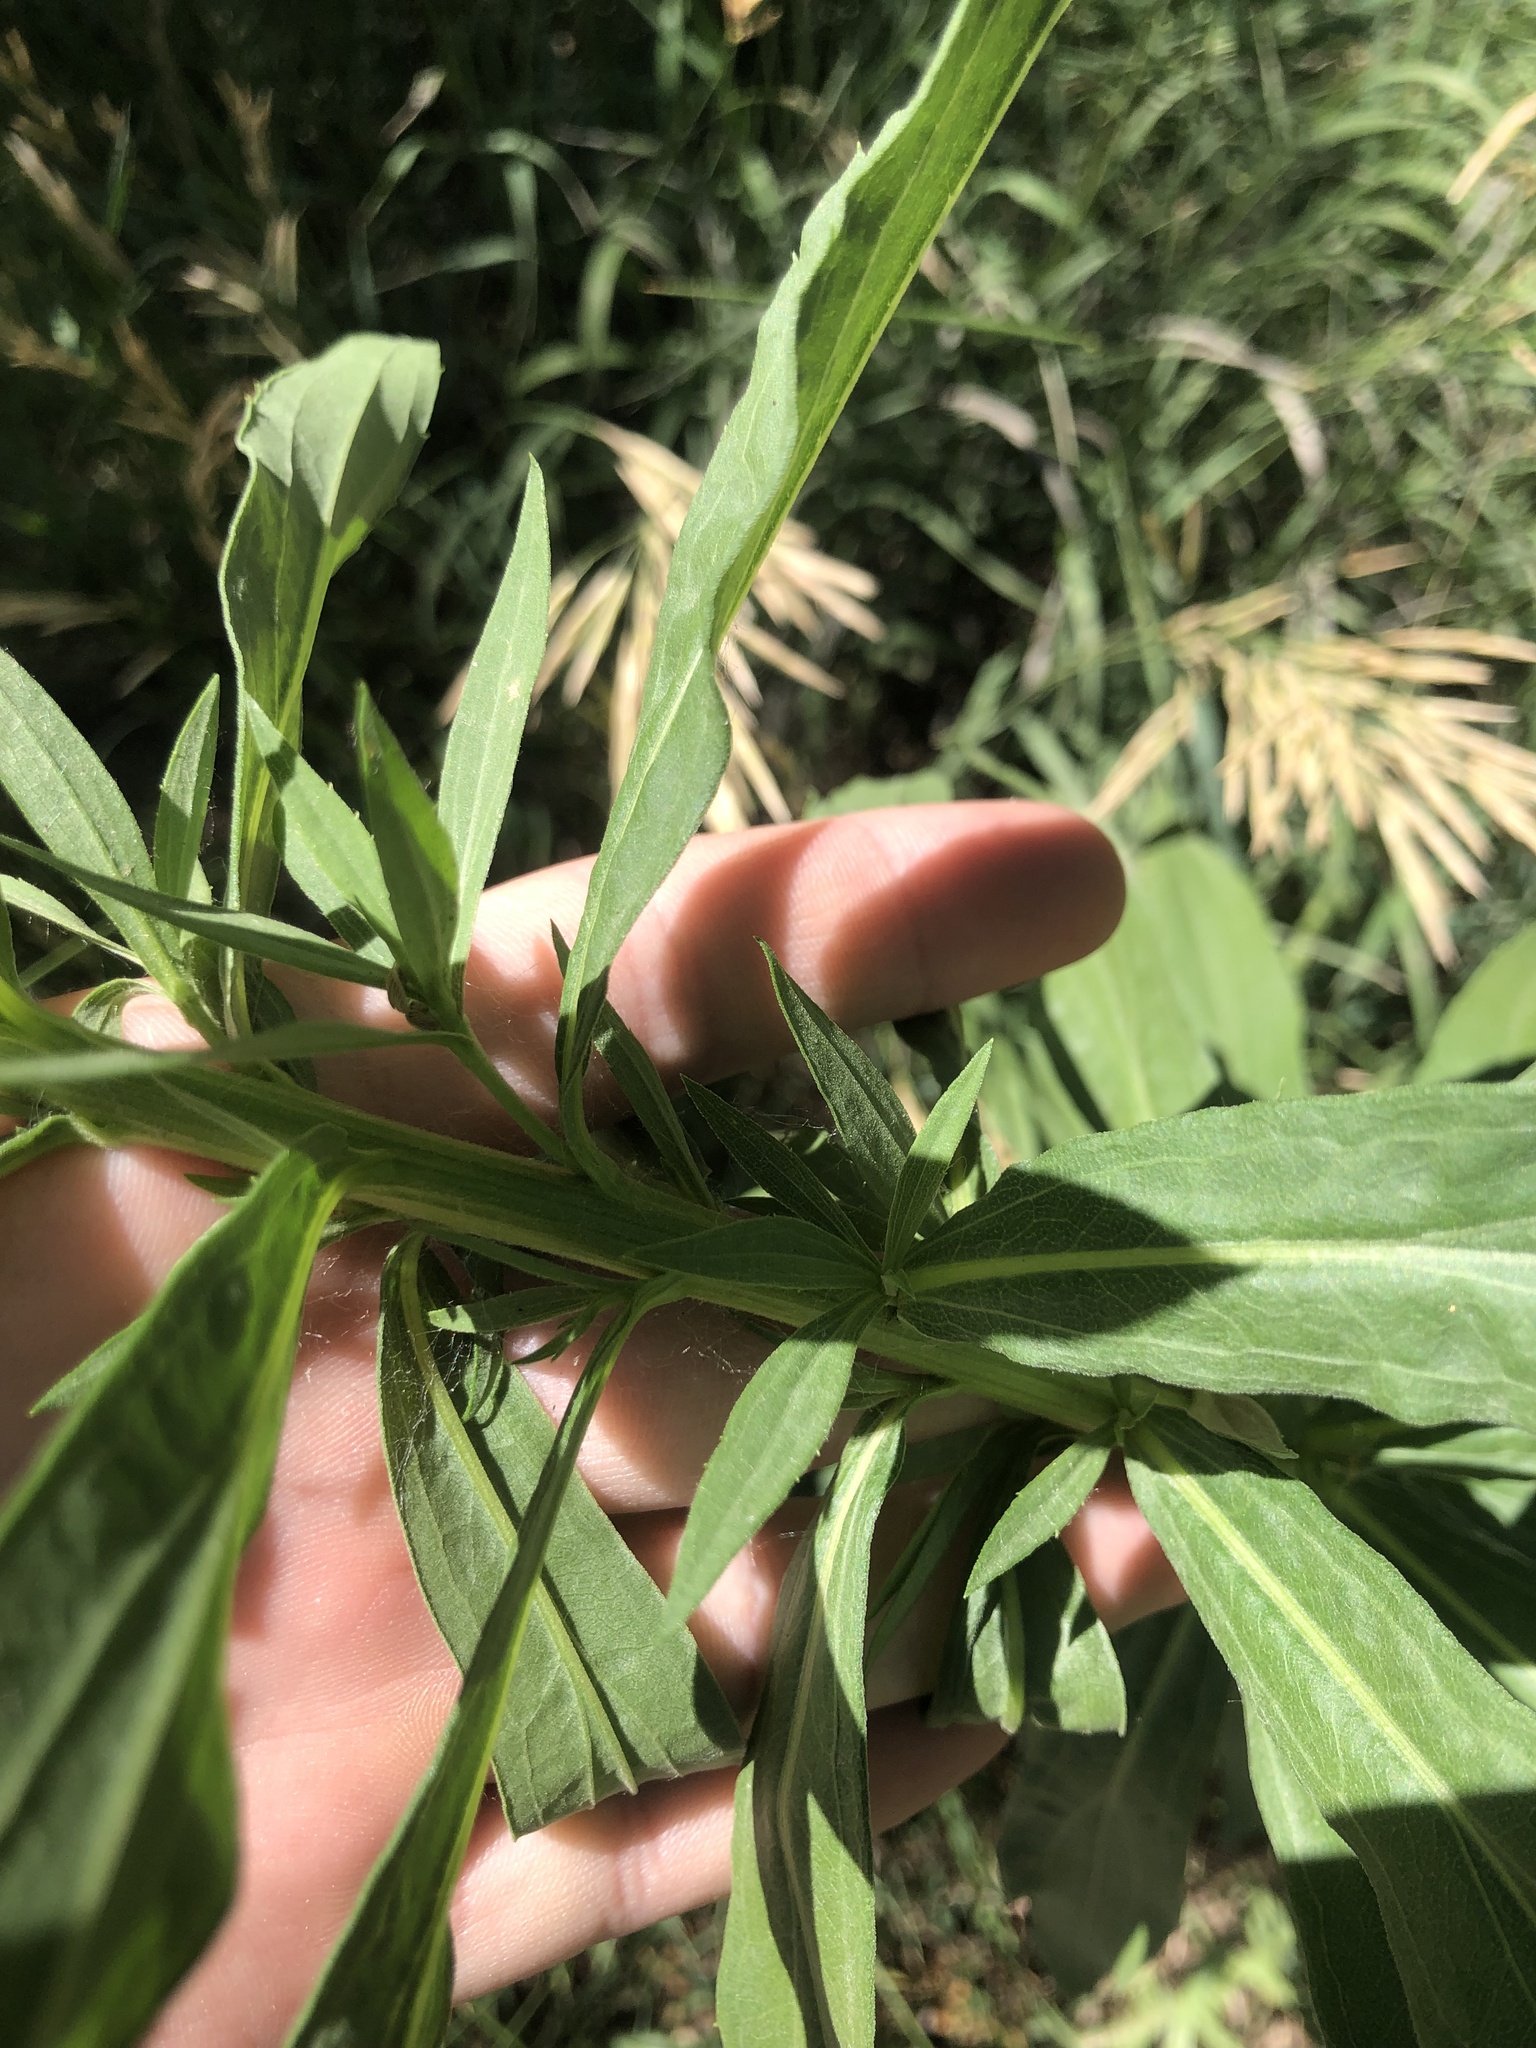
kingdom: Plantae
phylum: Tracheophyta
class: Magnoliopsida
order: Asterales
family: Asteraceae
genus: Solidago
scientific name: Solidago altissima
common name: Late goldenrod
